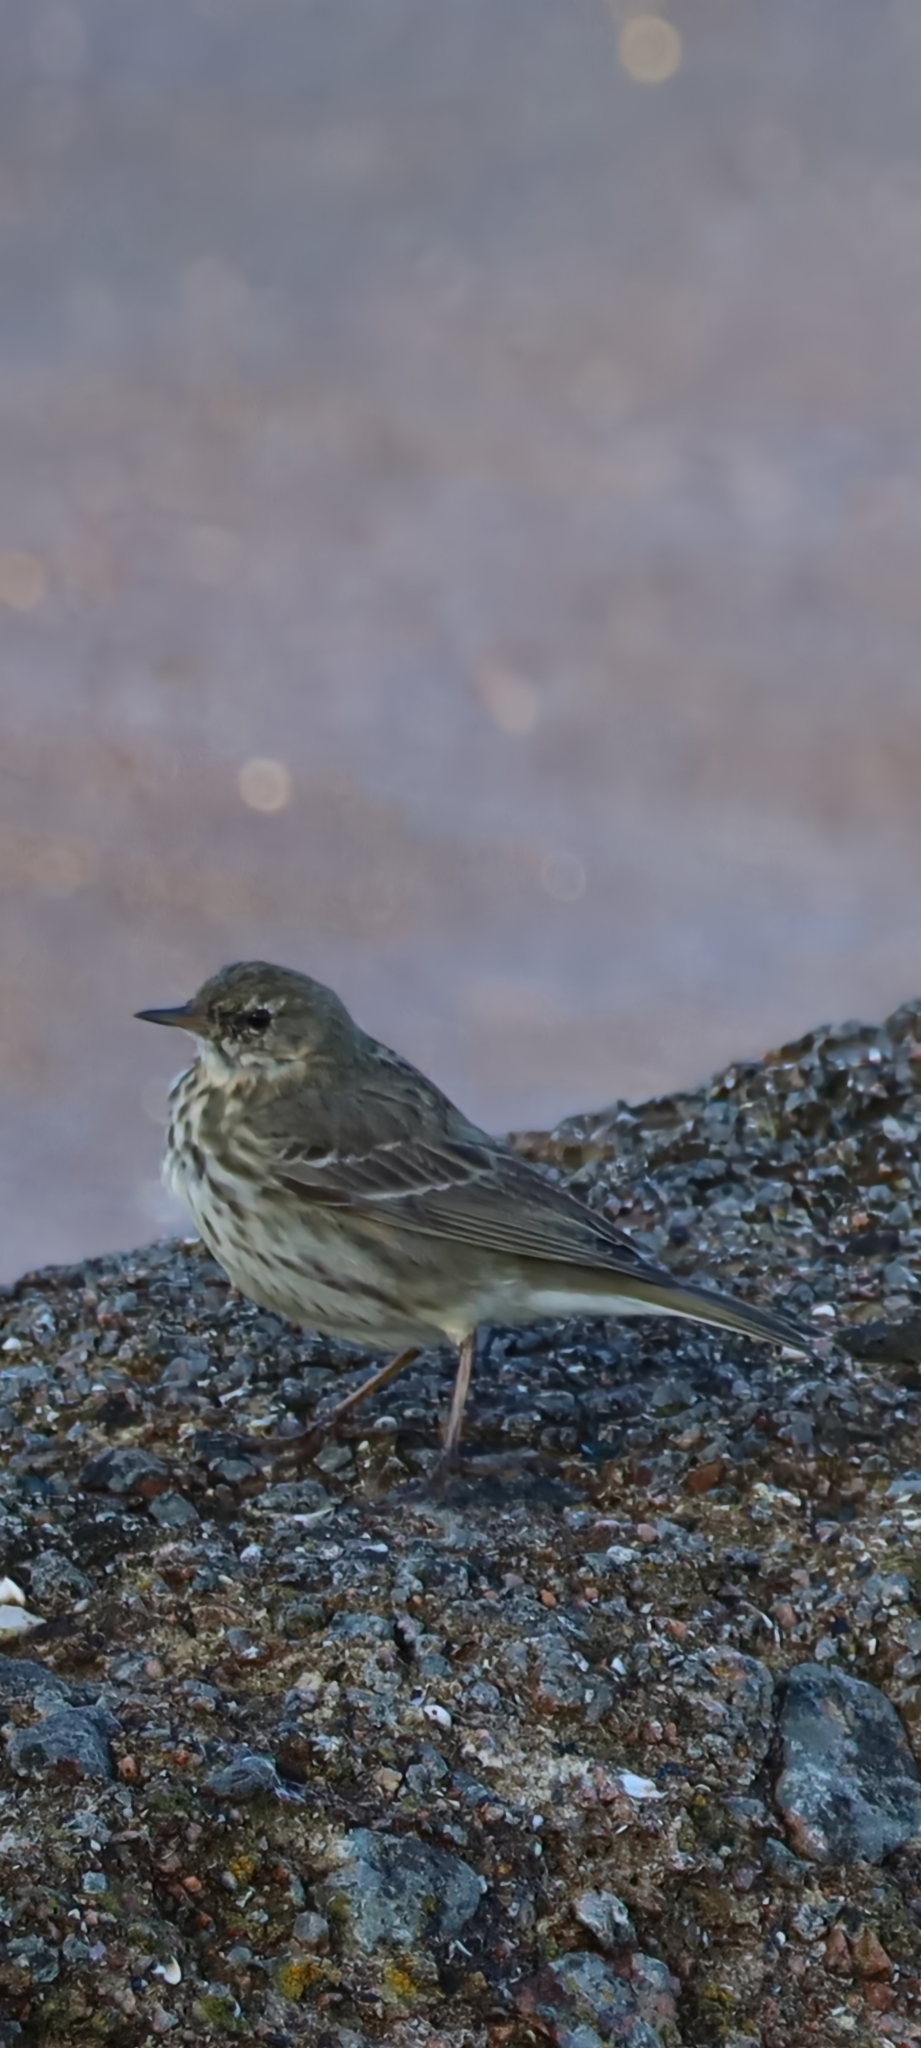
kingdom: Animalia
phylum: Chordata
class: Aves
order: Passeriformes
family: Motacillidae
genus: Anthus
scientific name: Anthus petrosus
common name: Eurasian rock pipit
